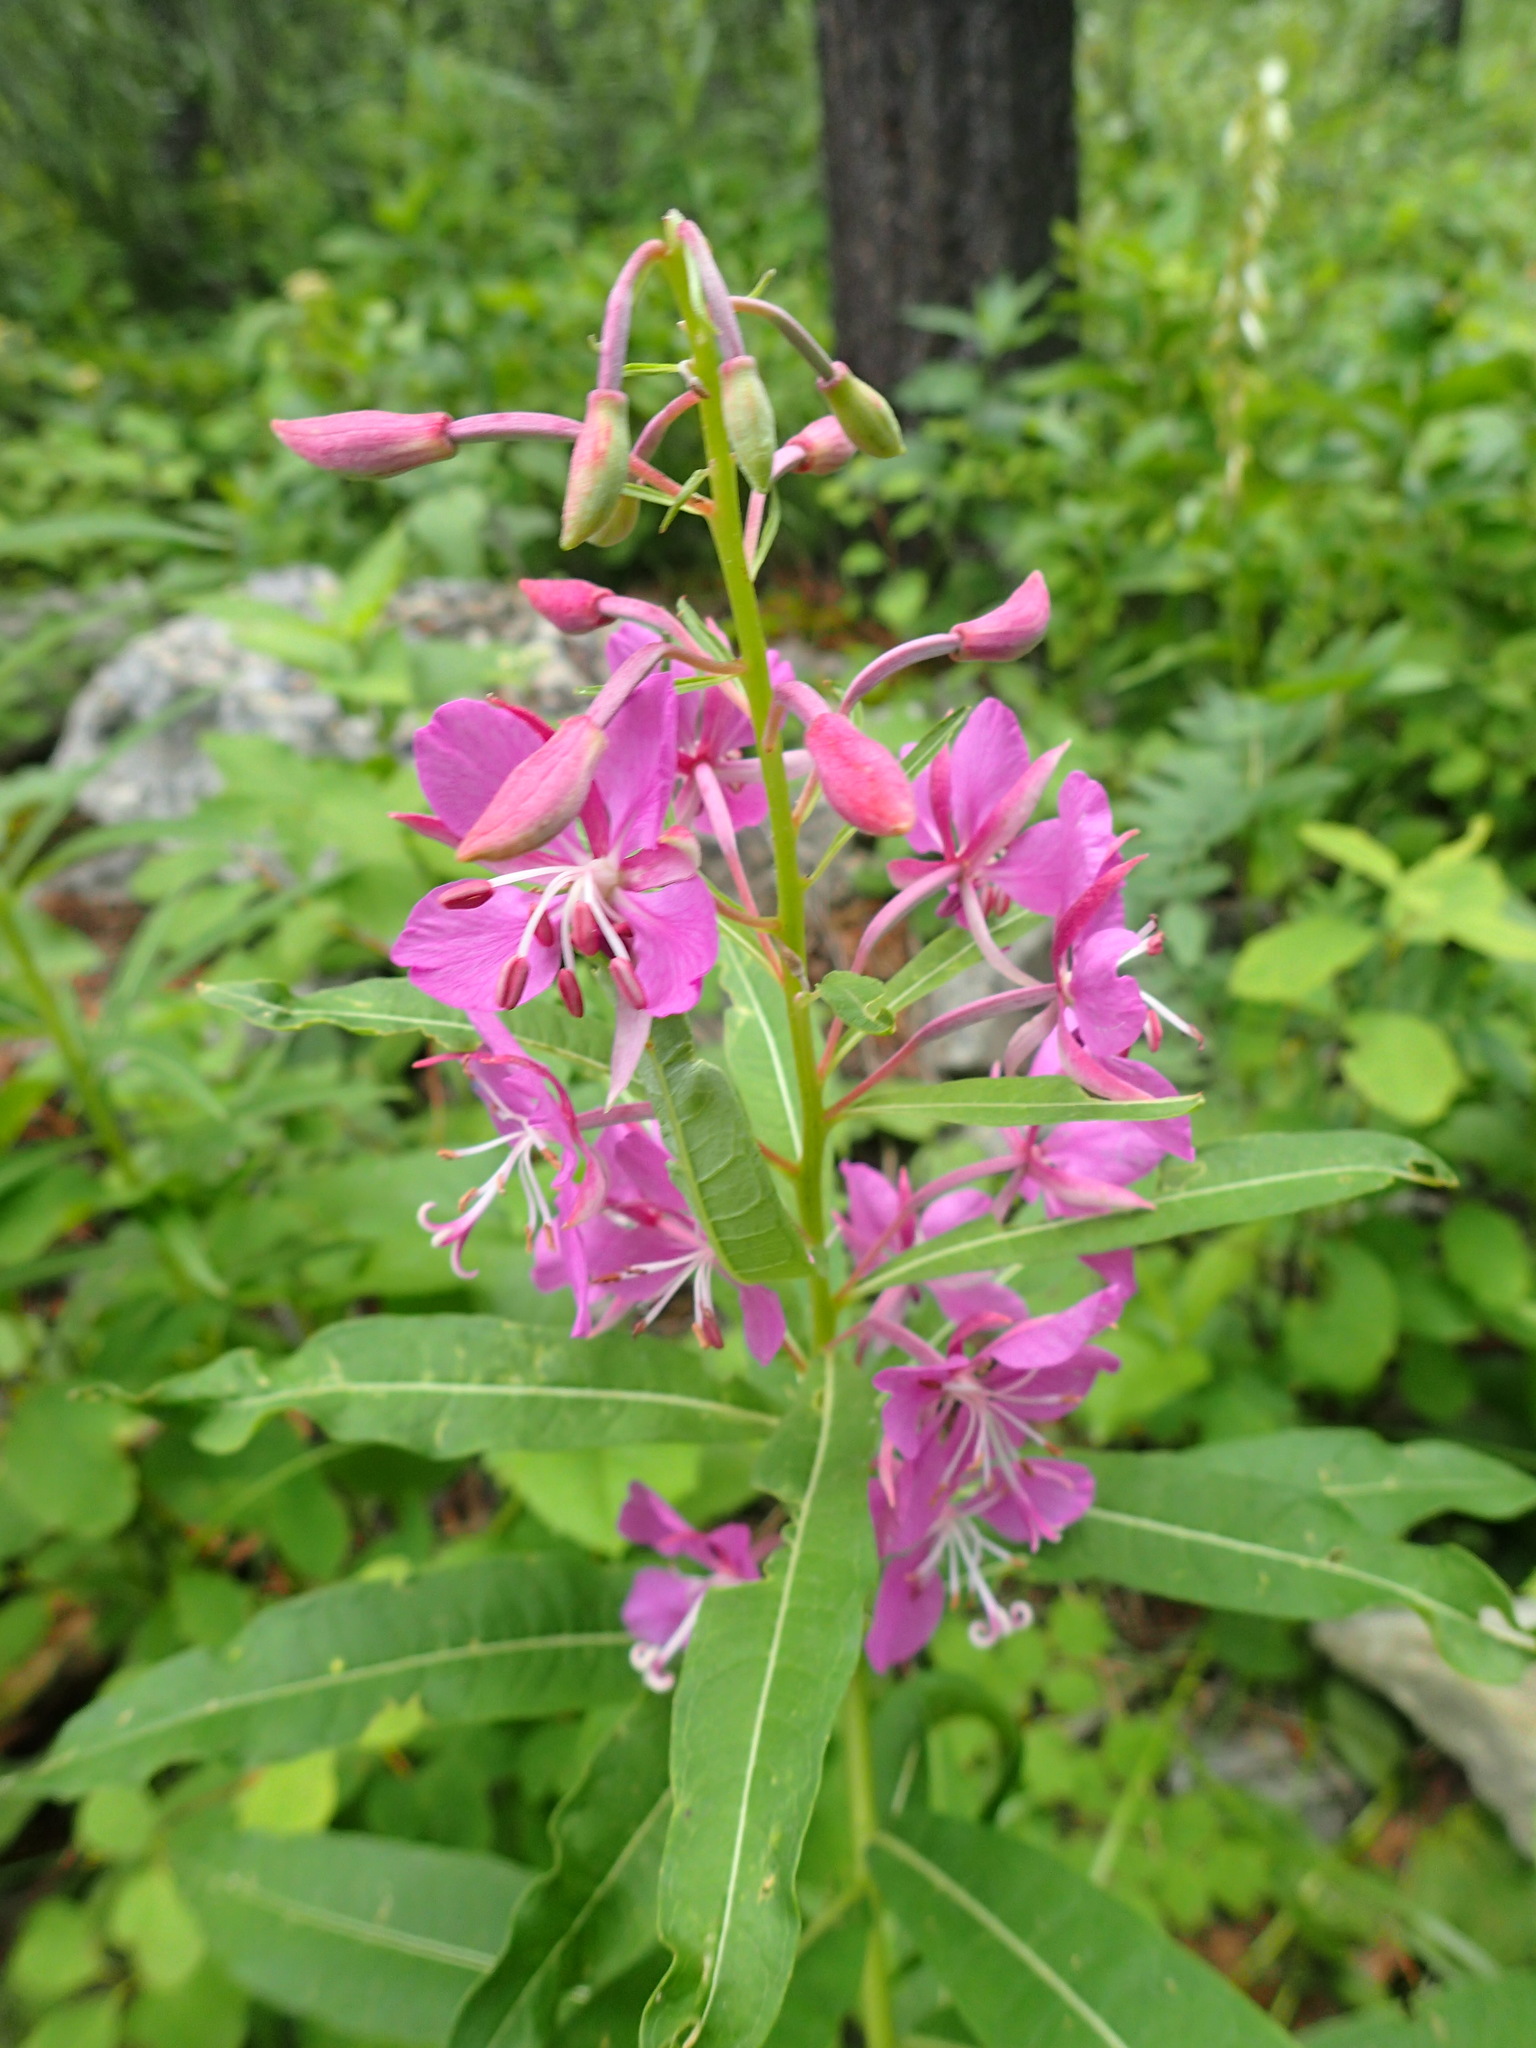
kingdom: Plantae
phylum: Tracheophyta
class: Magnoliopsida
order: Myrtales
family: Onagraceae
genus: Chamaenerion
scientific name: Chamaenerion angustifolium
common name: Fireweed
